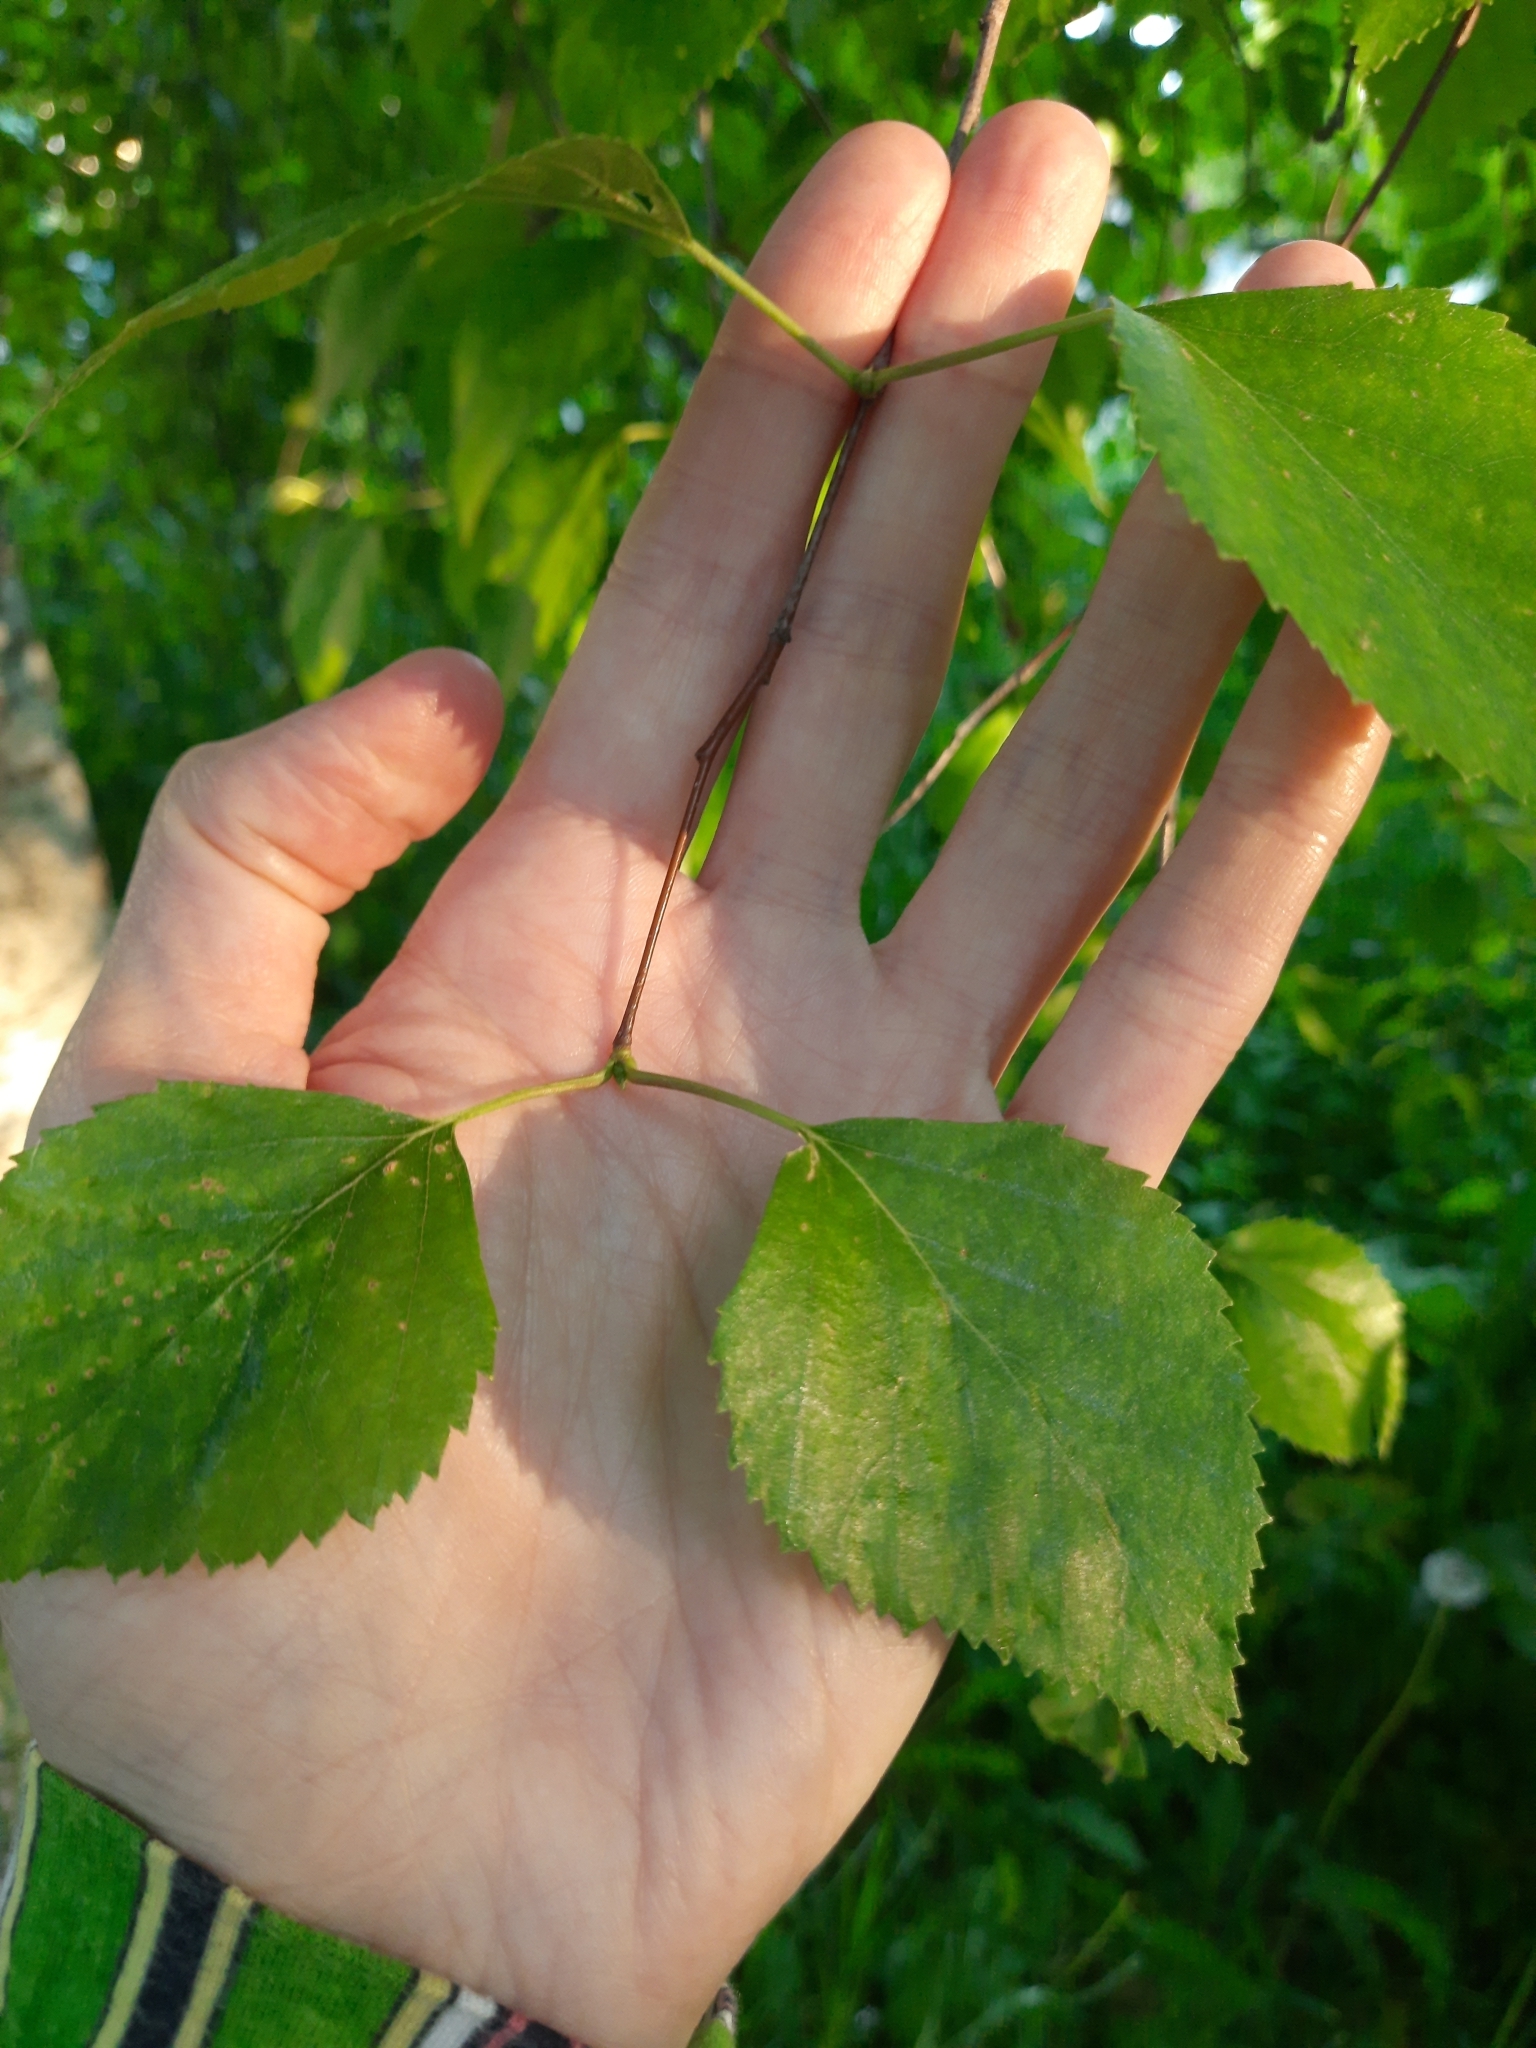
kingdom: Plantae
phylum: Tracheophyta
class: Magnoliopsida
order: Fagales
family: Betulaceae
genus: Betula
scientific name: Betula pubescens
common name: Downy birch
